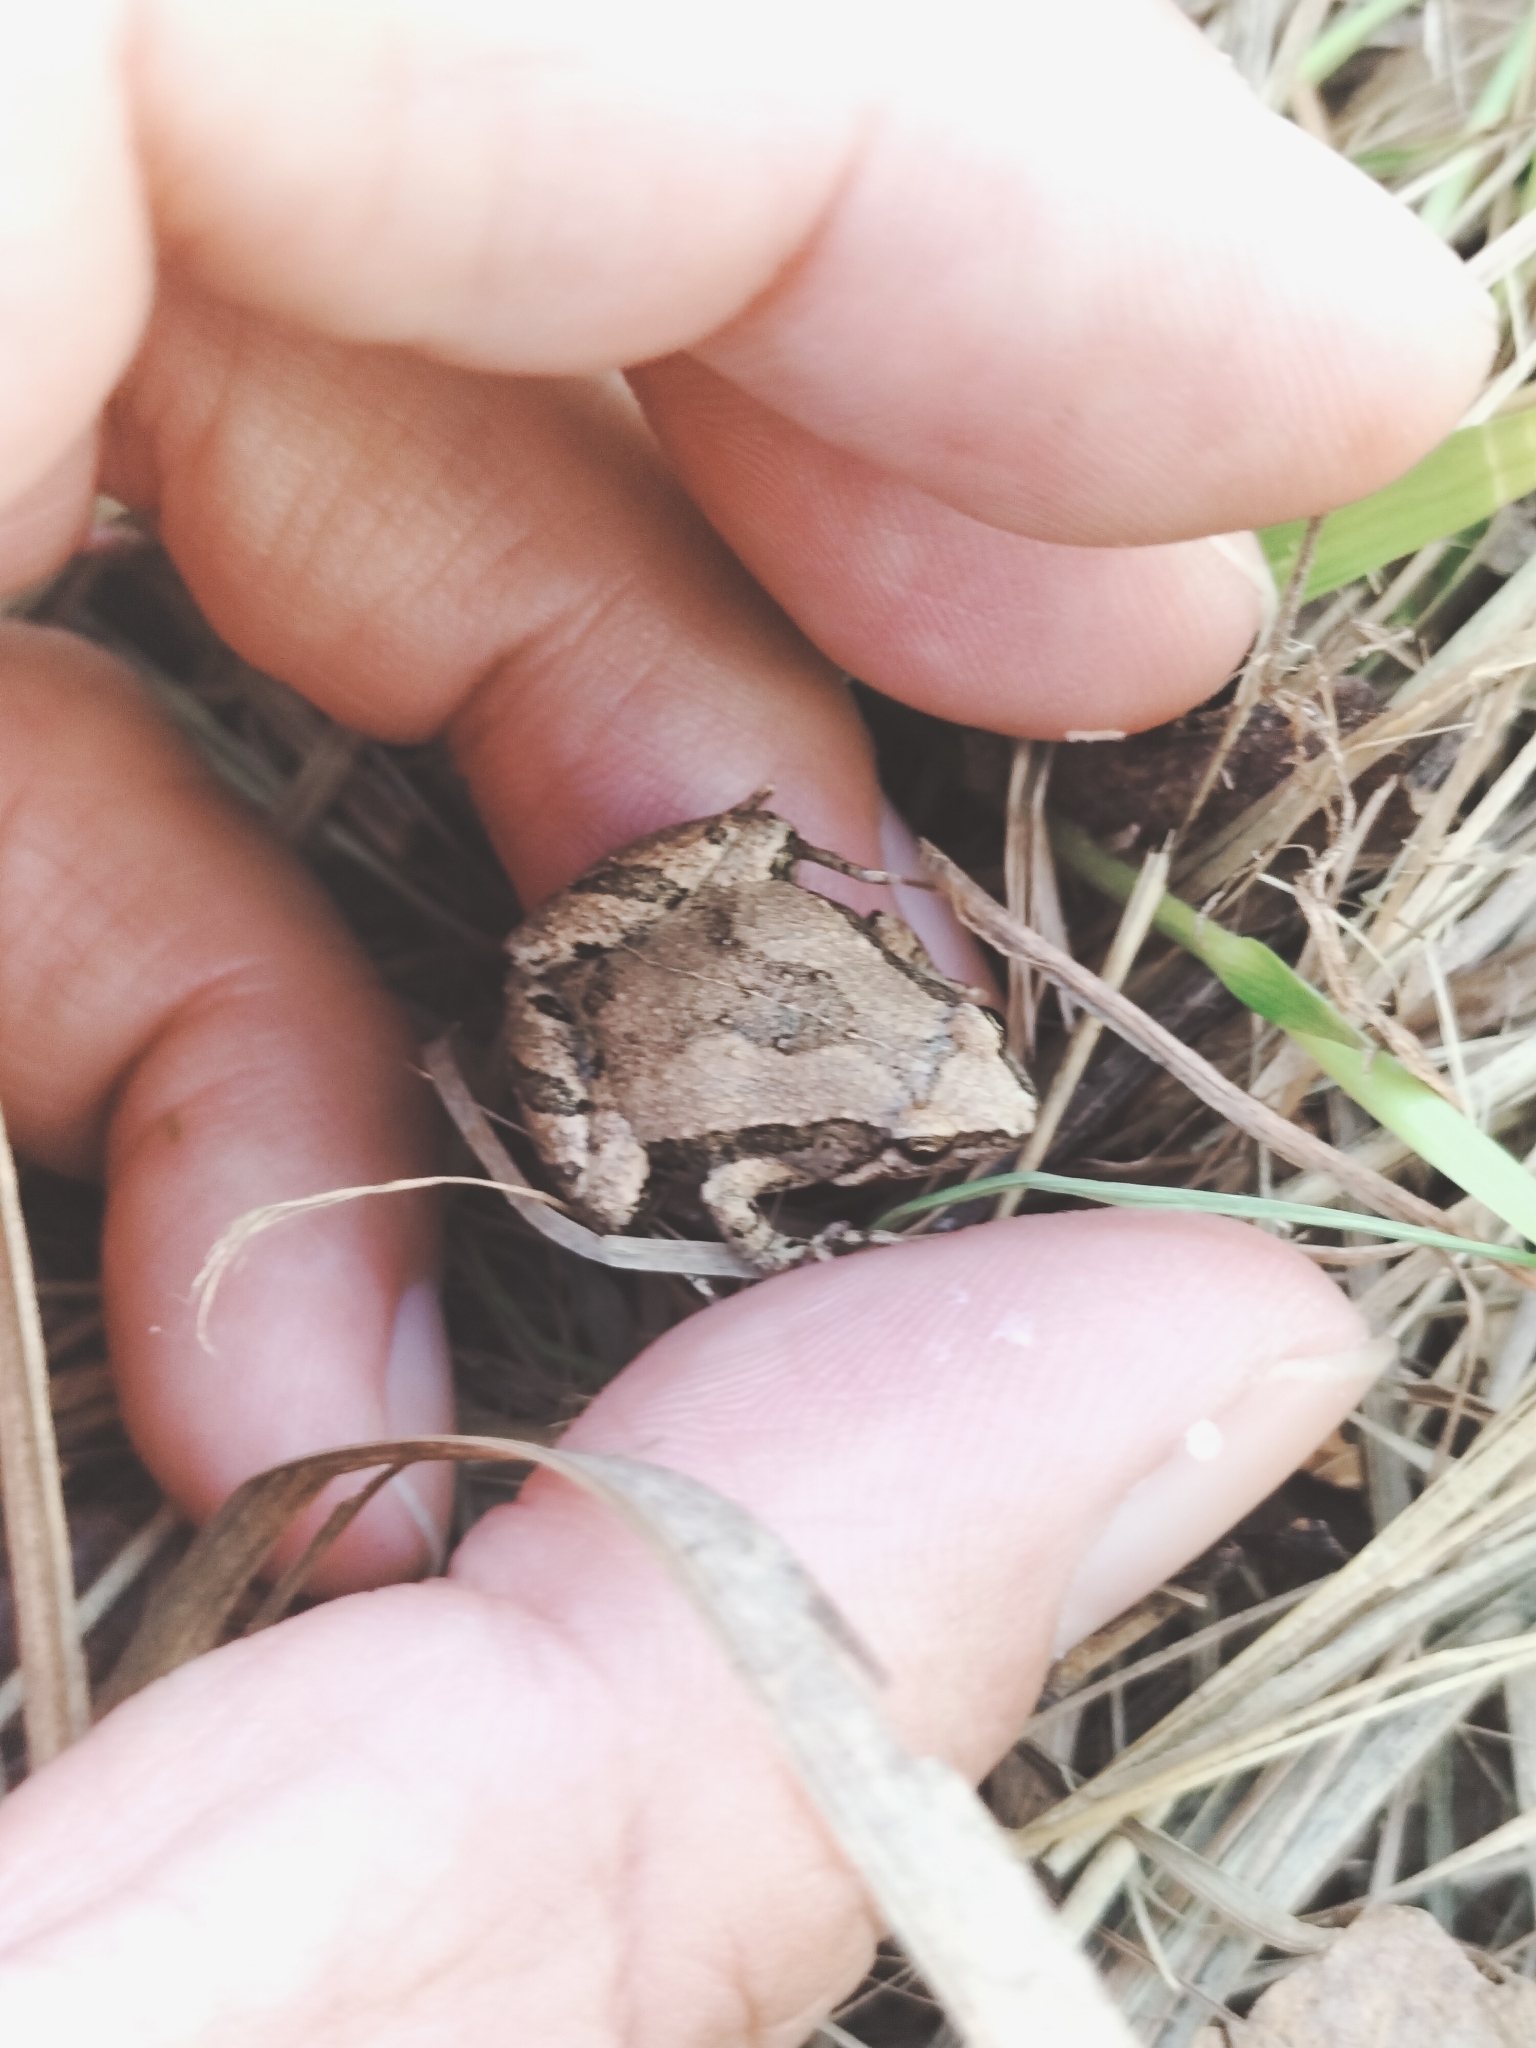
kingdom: Animalia
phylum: Chordata
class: Amphibia
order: Anura
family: Microhylidae
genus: Microhyla
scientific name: Microhyla fissipes
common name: Ornate narrow-mouthed frog
